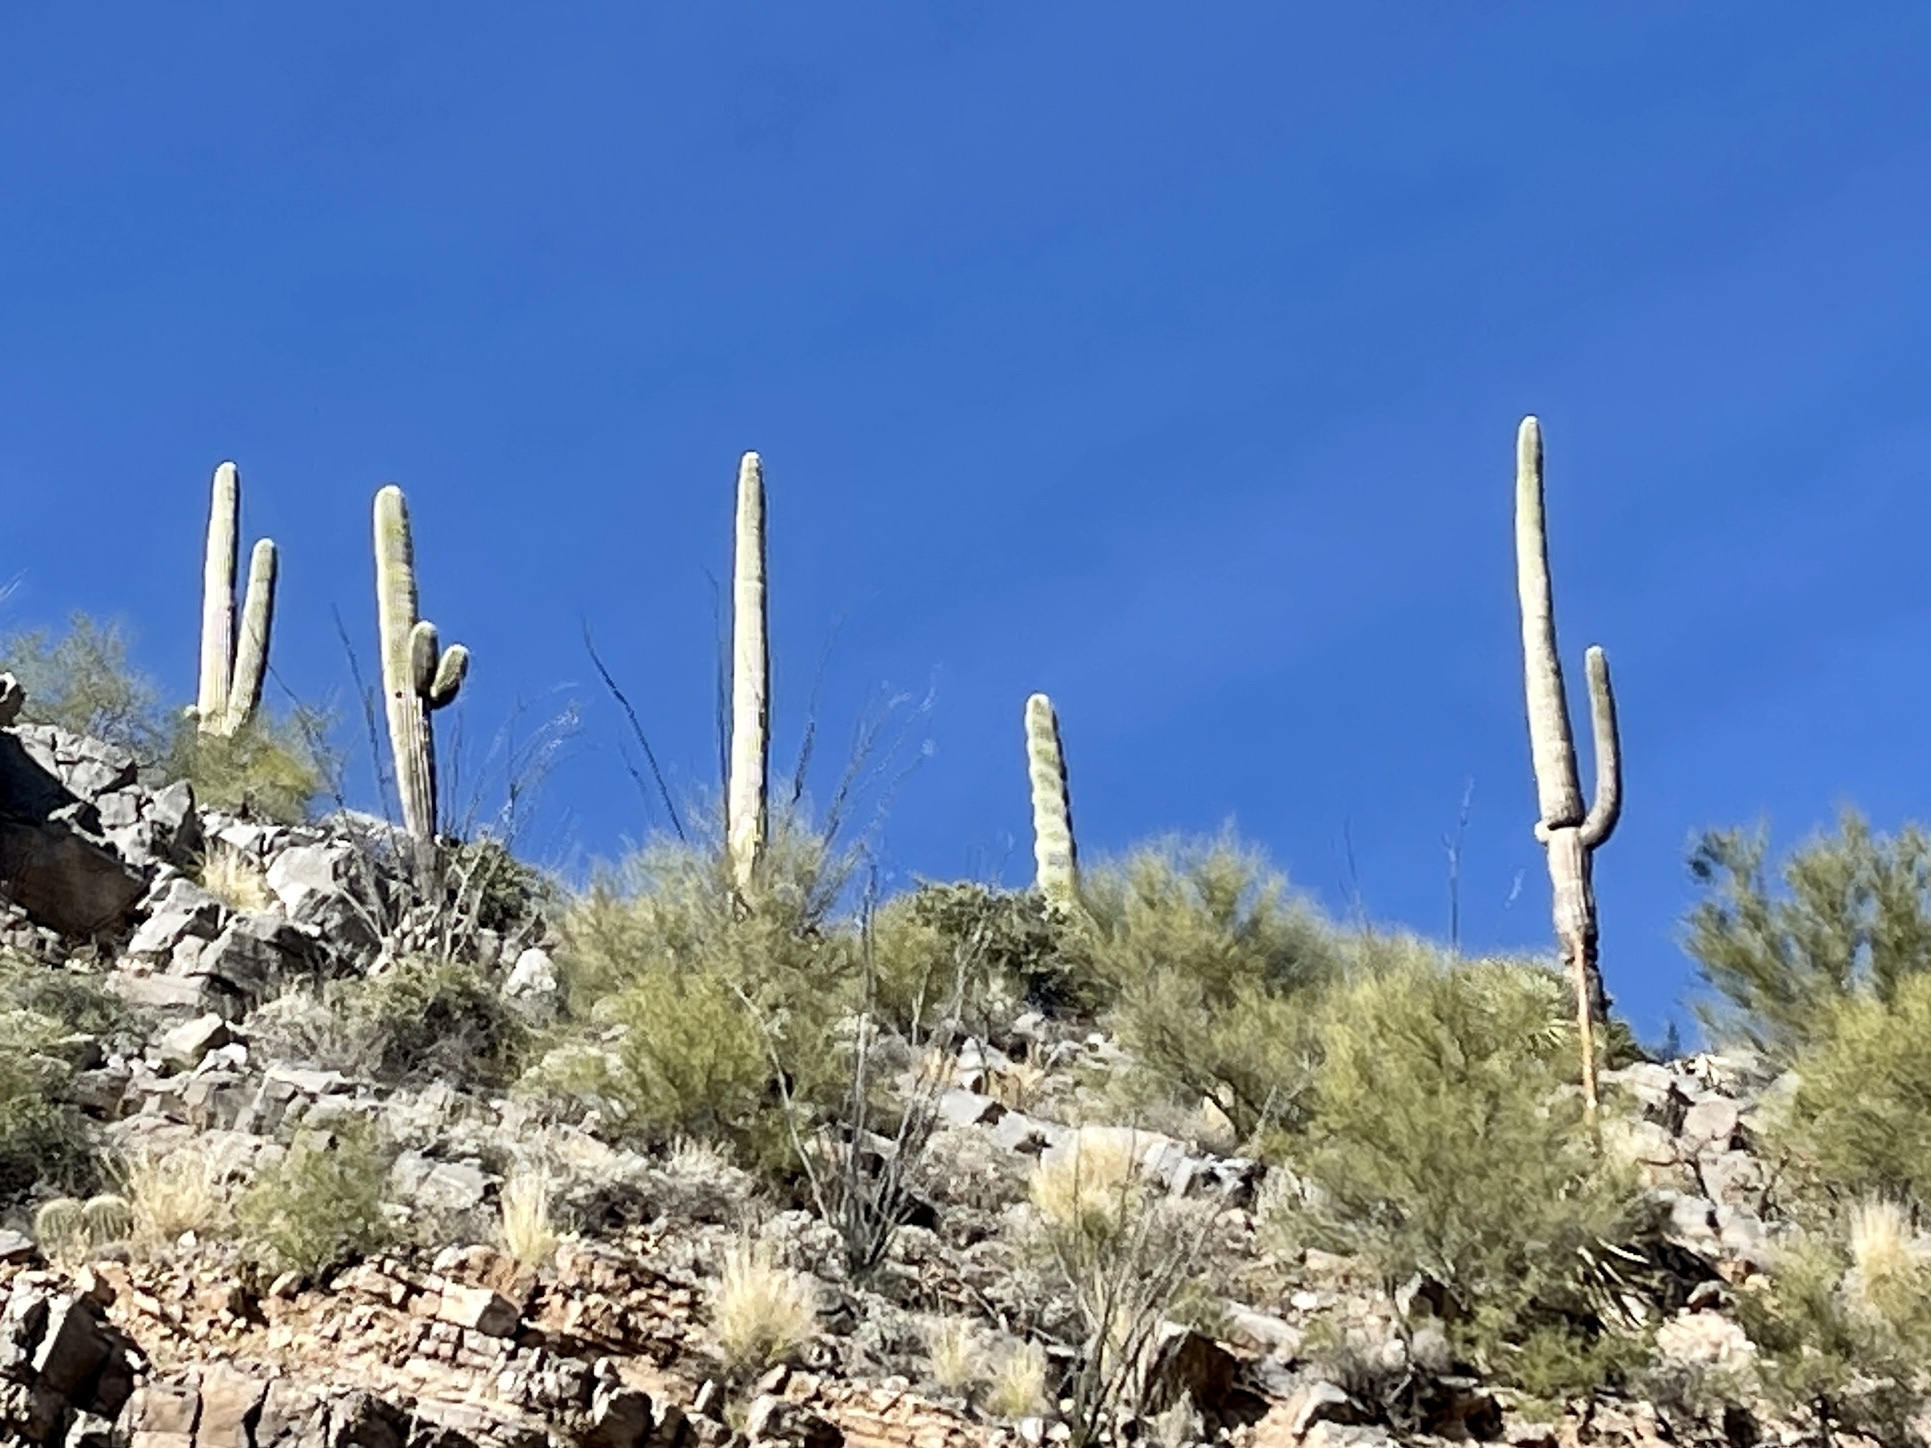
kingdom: Plantae
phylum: Tracheophyta
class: Magnoliopsida
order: Caryophyllales
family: Cactaceae
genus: Carnegiea
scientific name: Carnegiea gigantea
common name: Saguaro
